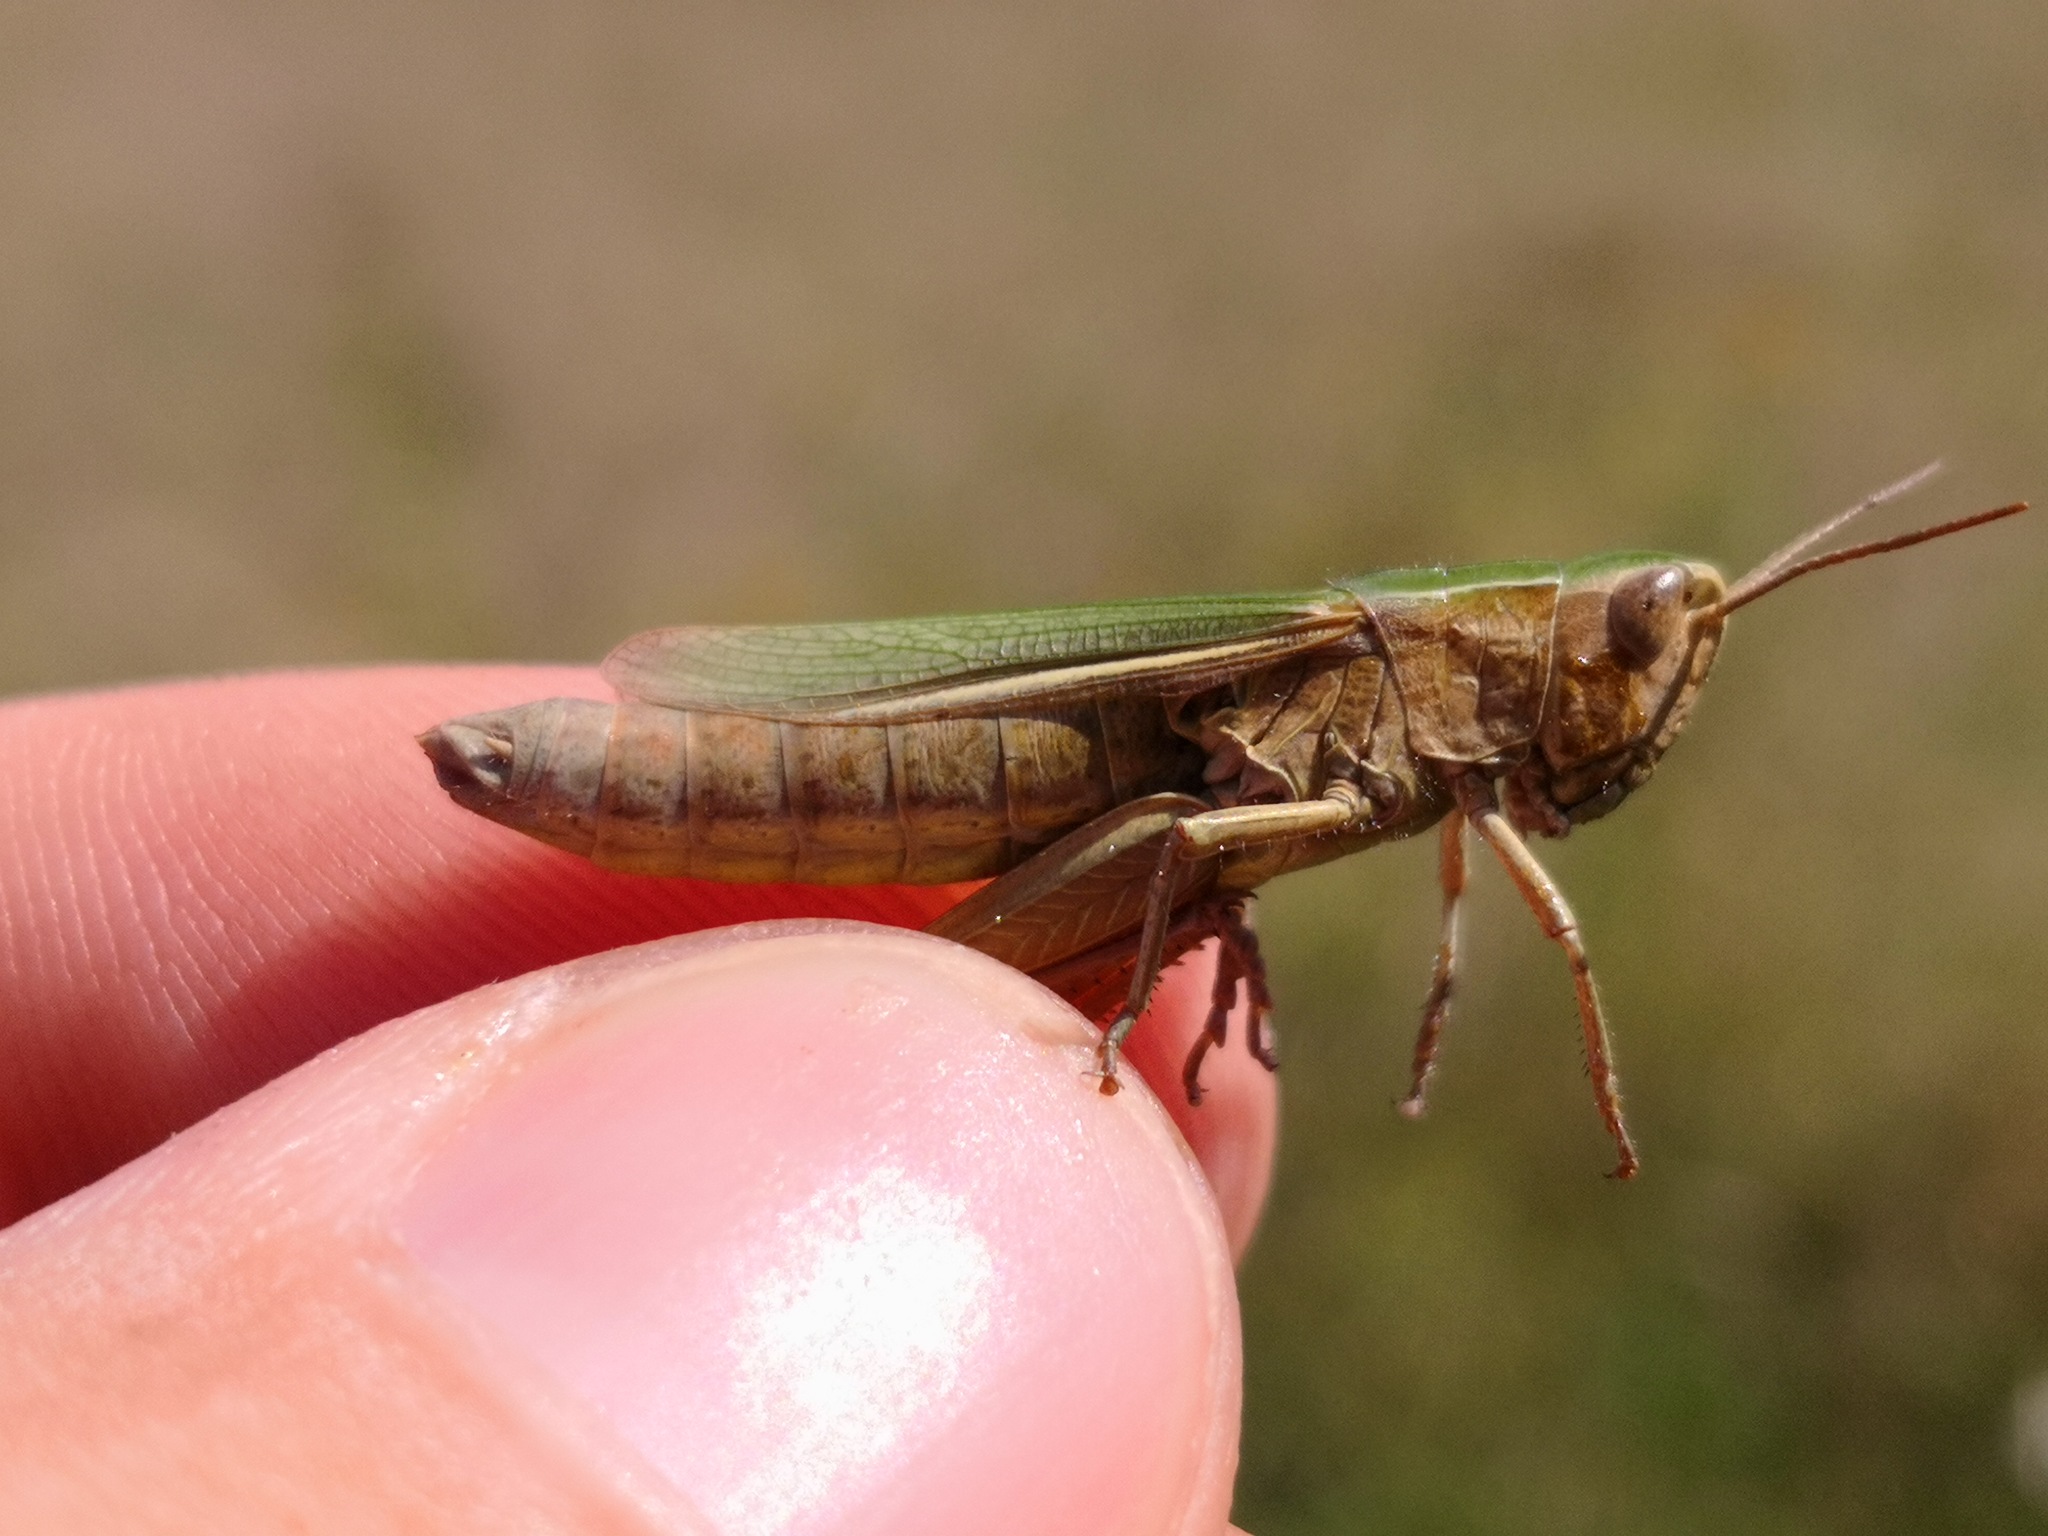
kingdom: Animalia
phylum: Arthropoda
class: Insecta
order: Orthoptera
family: Acrididae
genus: Chorthippus
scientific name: Chorthippus albomarginatus
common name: Lesser marsh grasshopper
